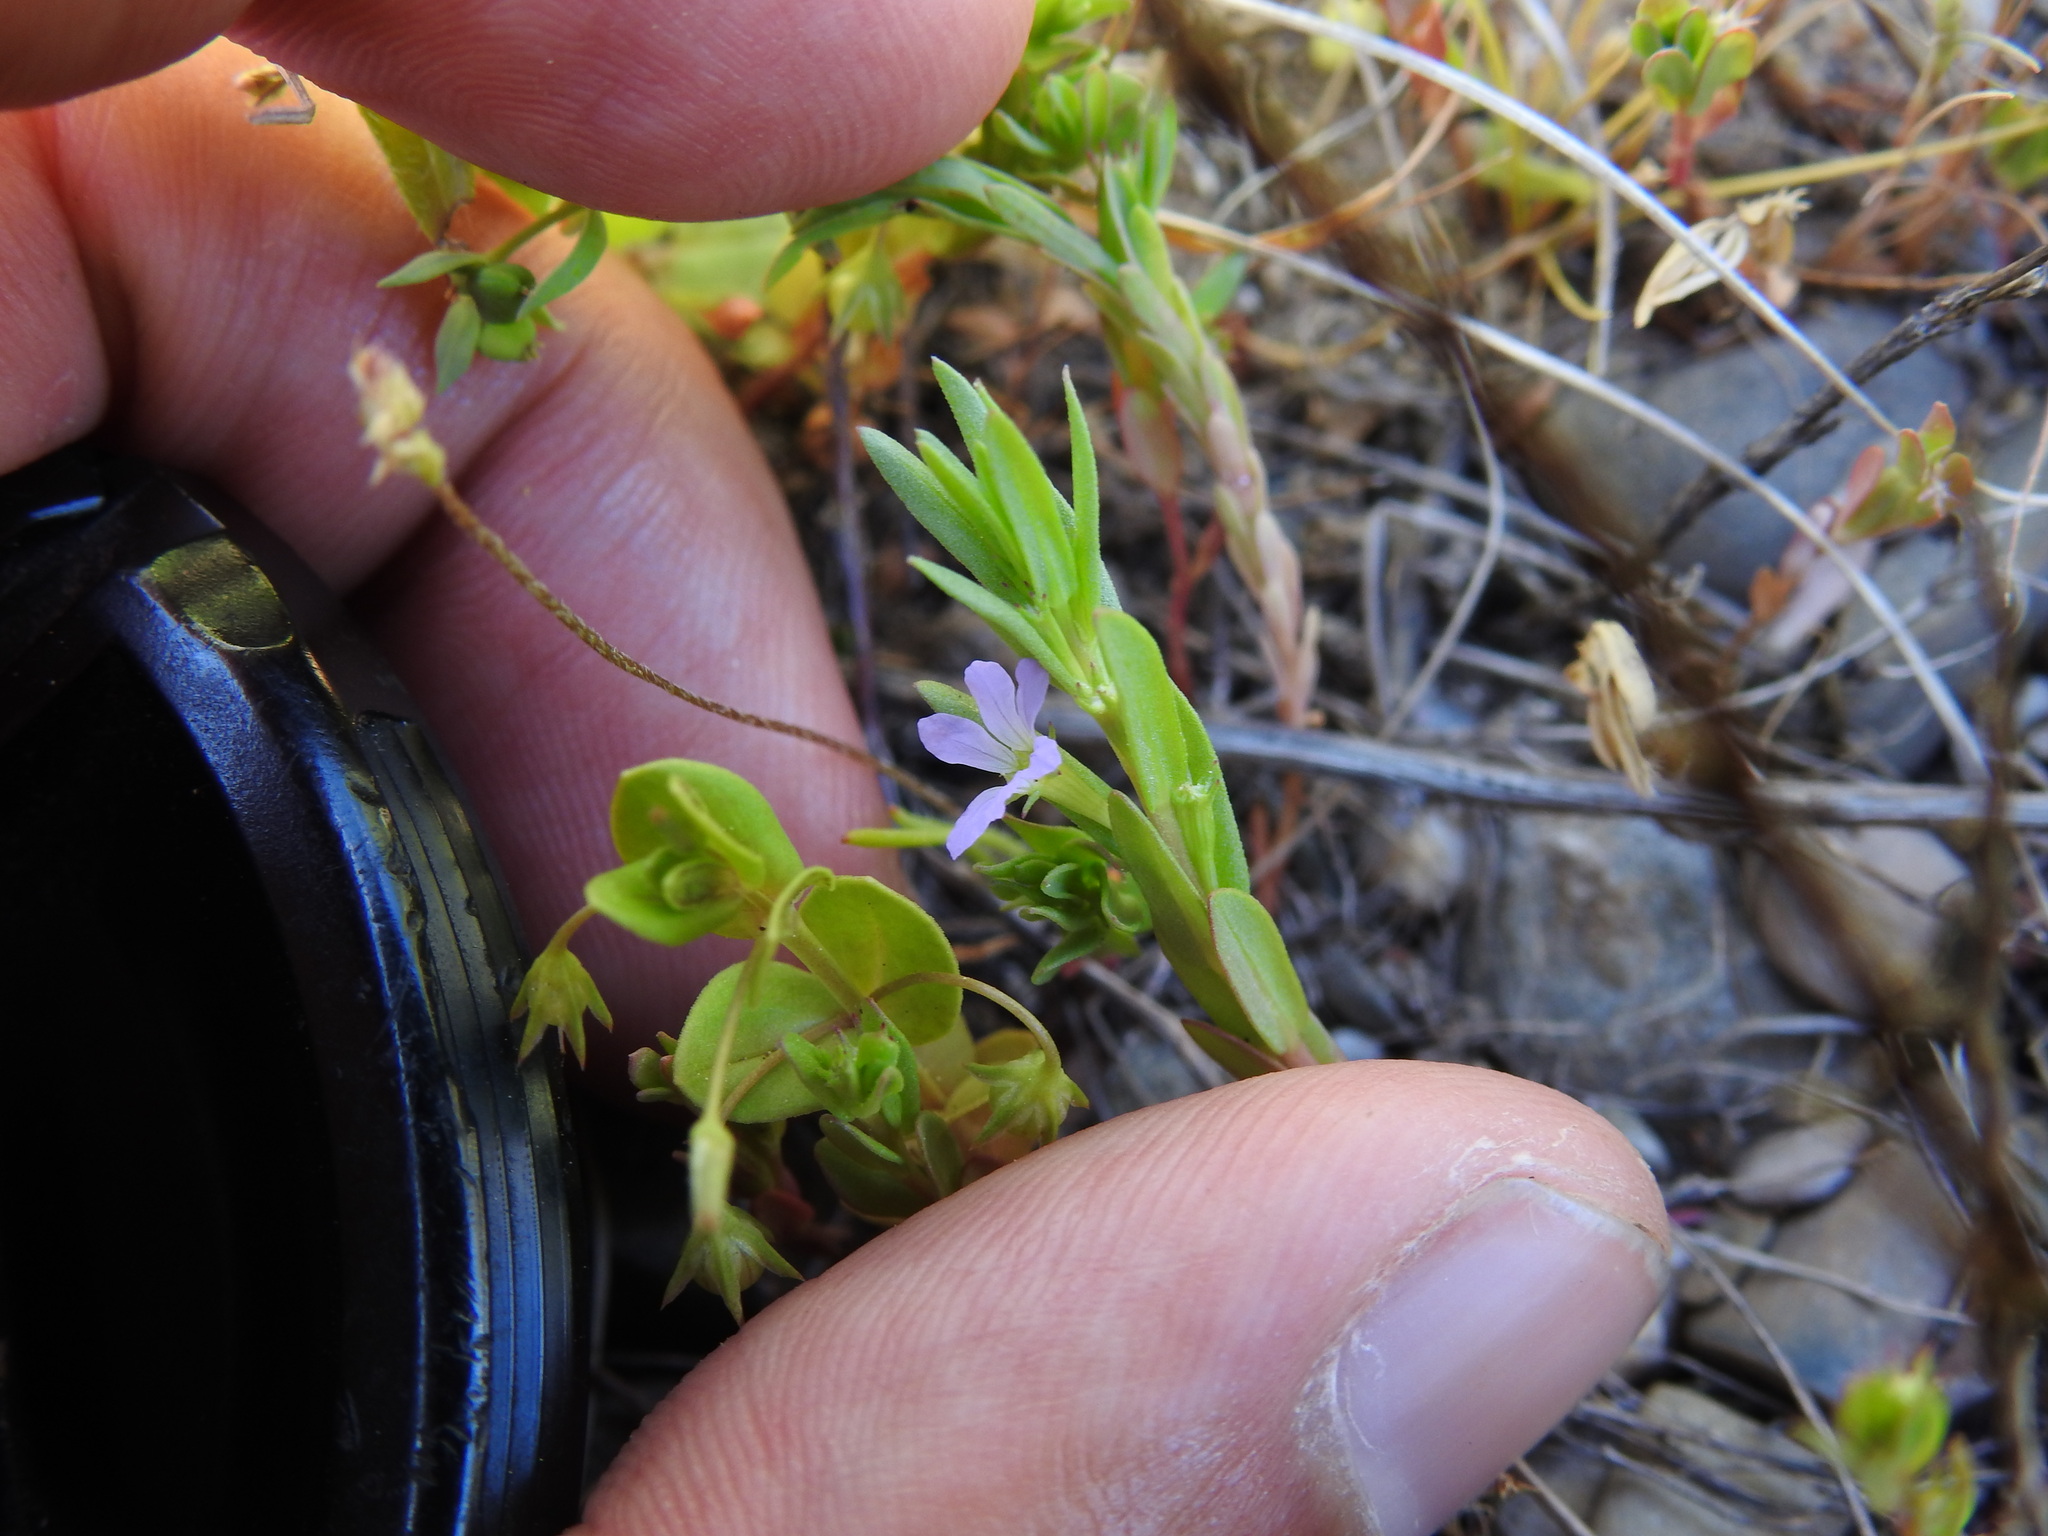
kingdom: Plantae
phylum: Tracheophyta
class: Magnoliopsida
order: Myrtales
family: Lythraceae
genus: Lythrum
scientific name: Lythrum hyssopifolia
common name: Grass-poly
